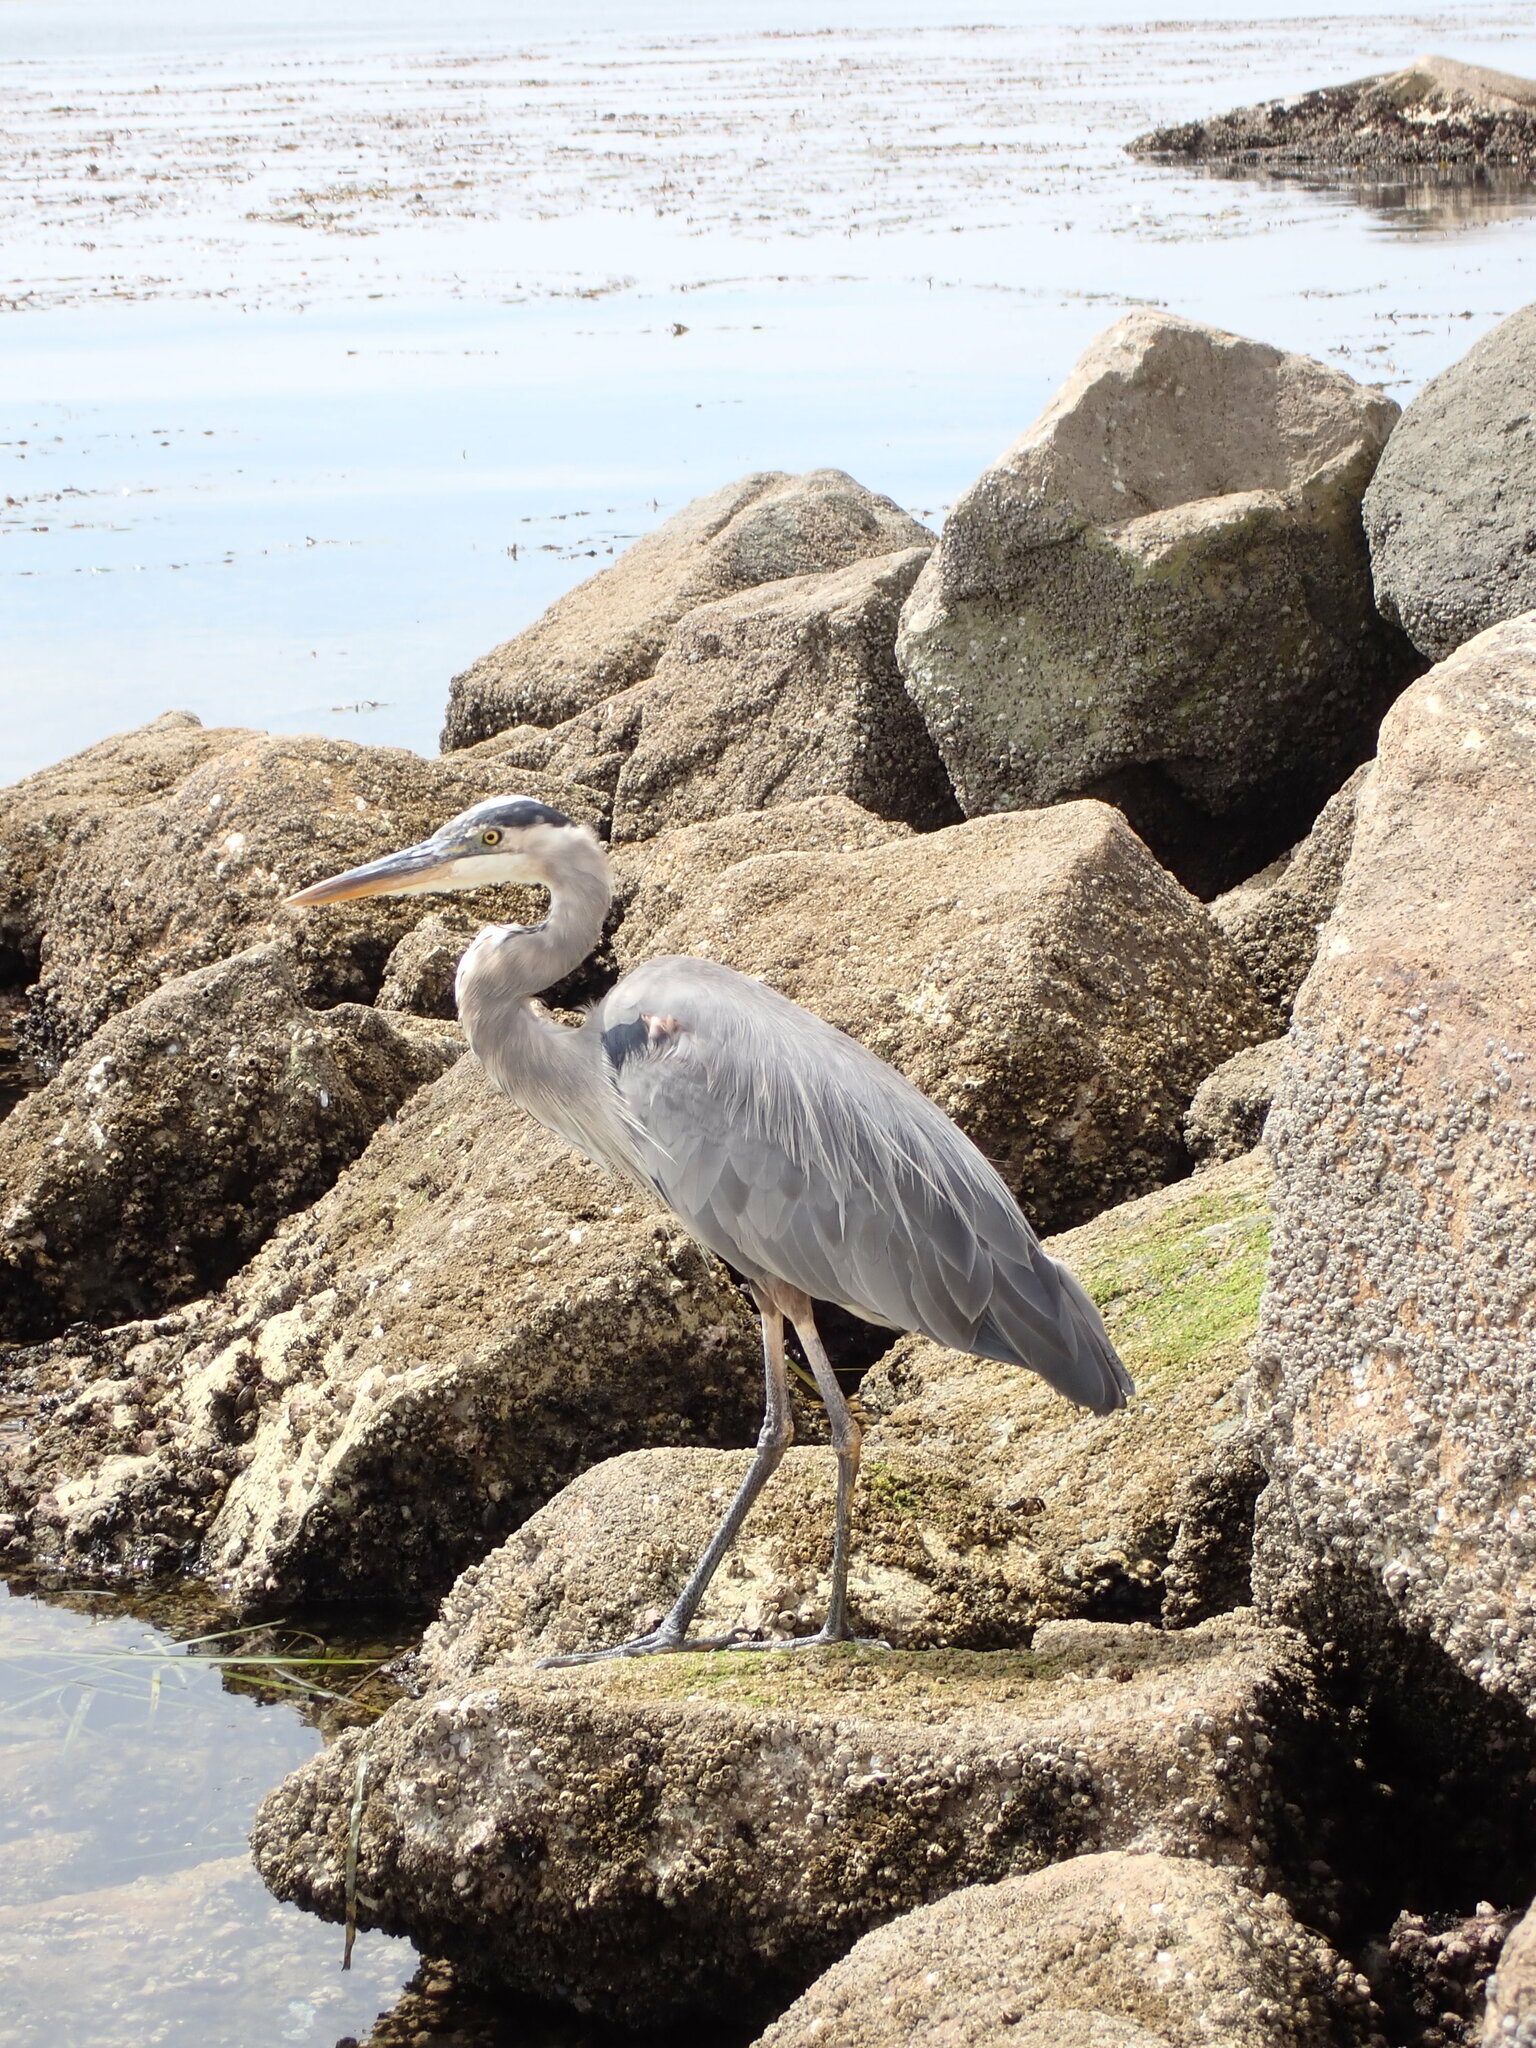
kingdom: Animalia
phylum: Chordata
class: Aves
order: Pelecaniformes
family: Ardeidae
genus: Ardea
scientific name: Ardea herodias
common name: Great blue heron
